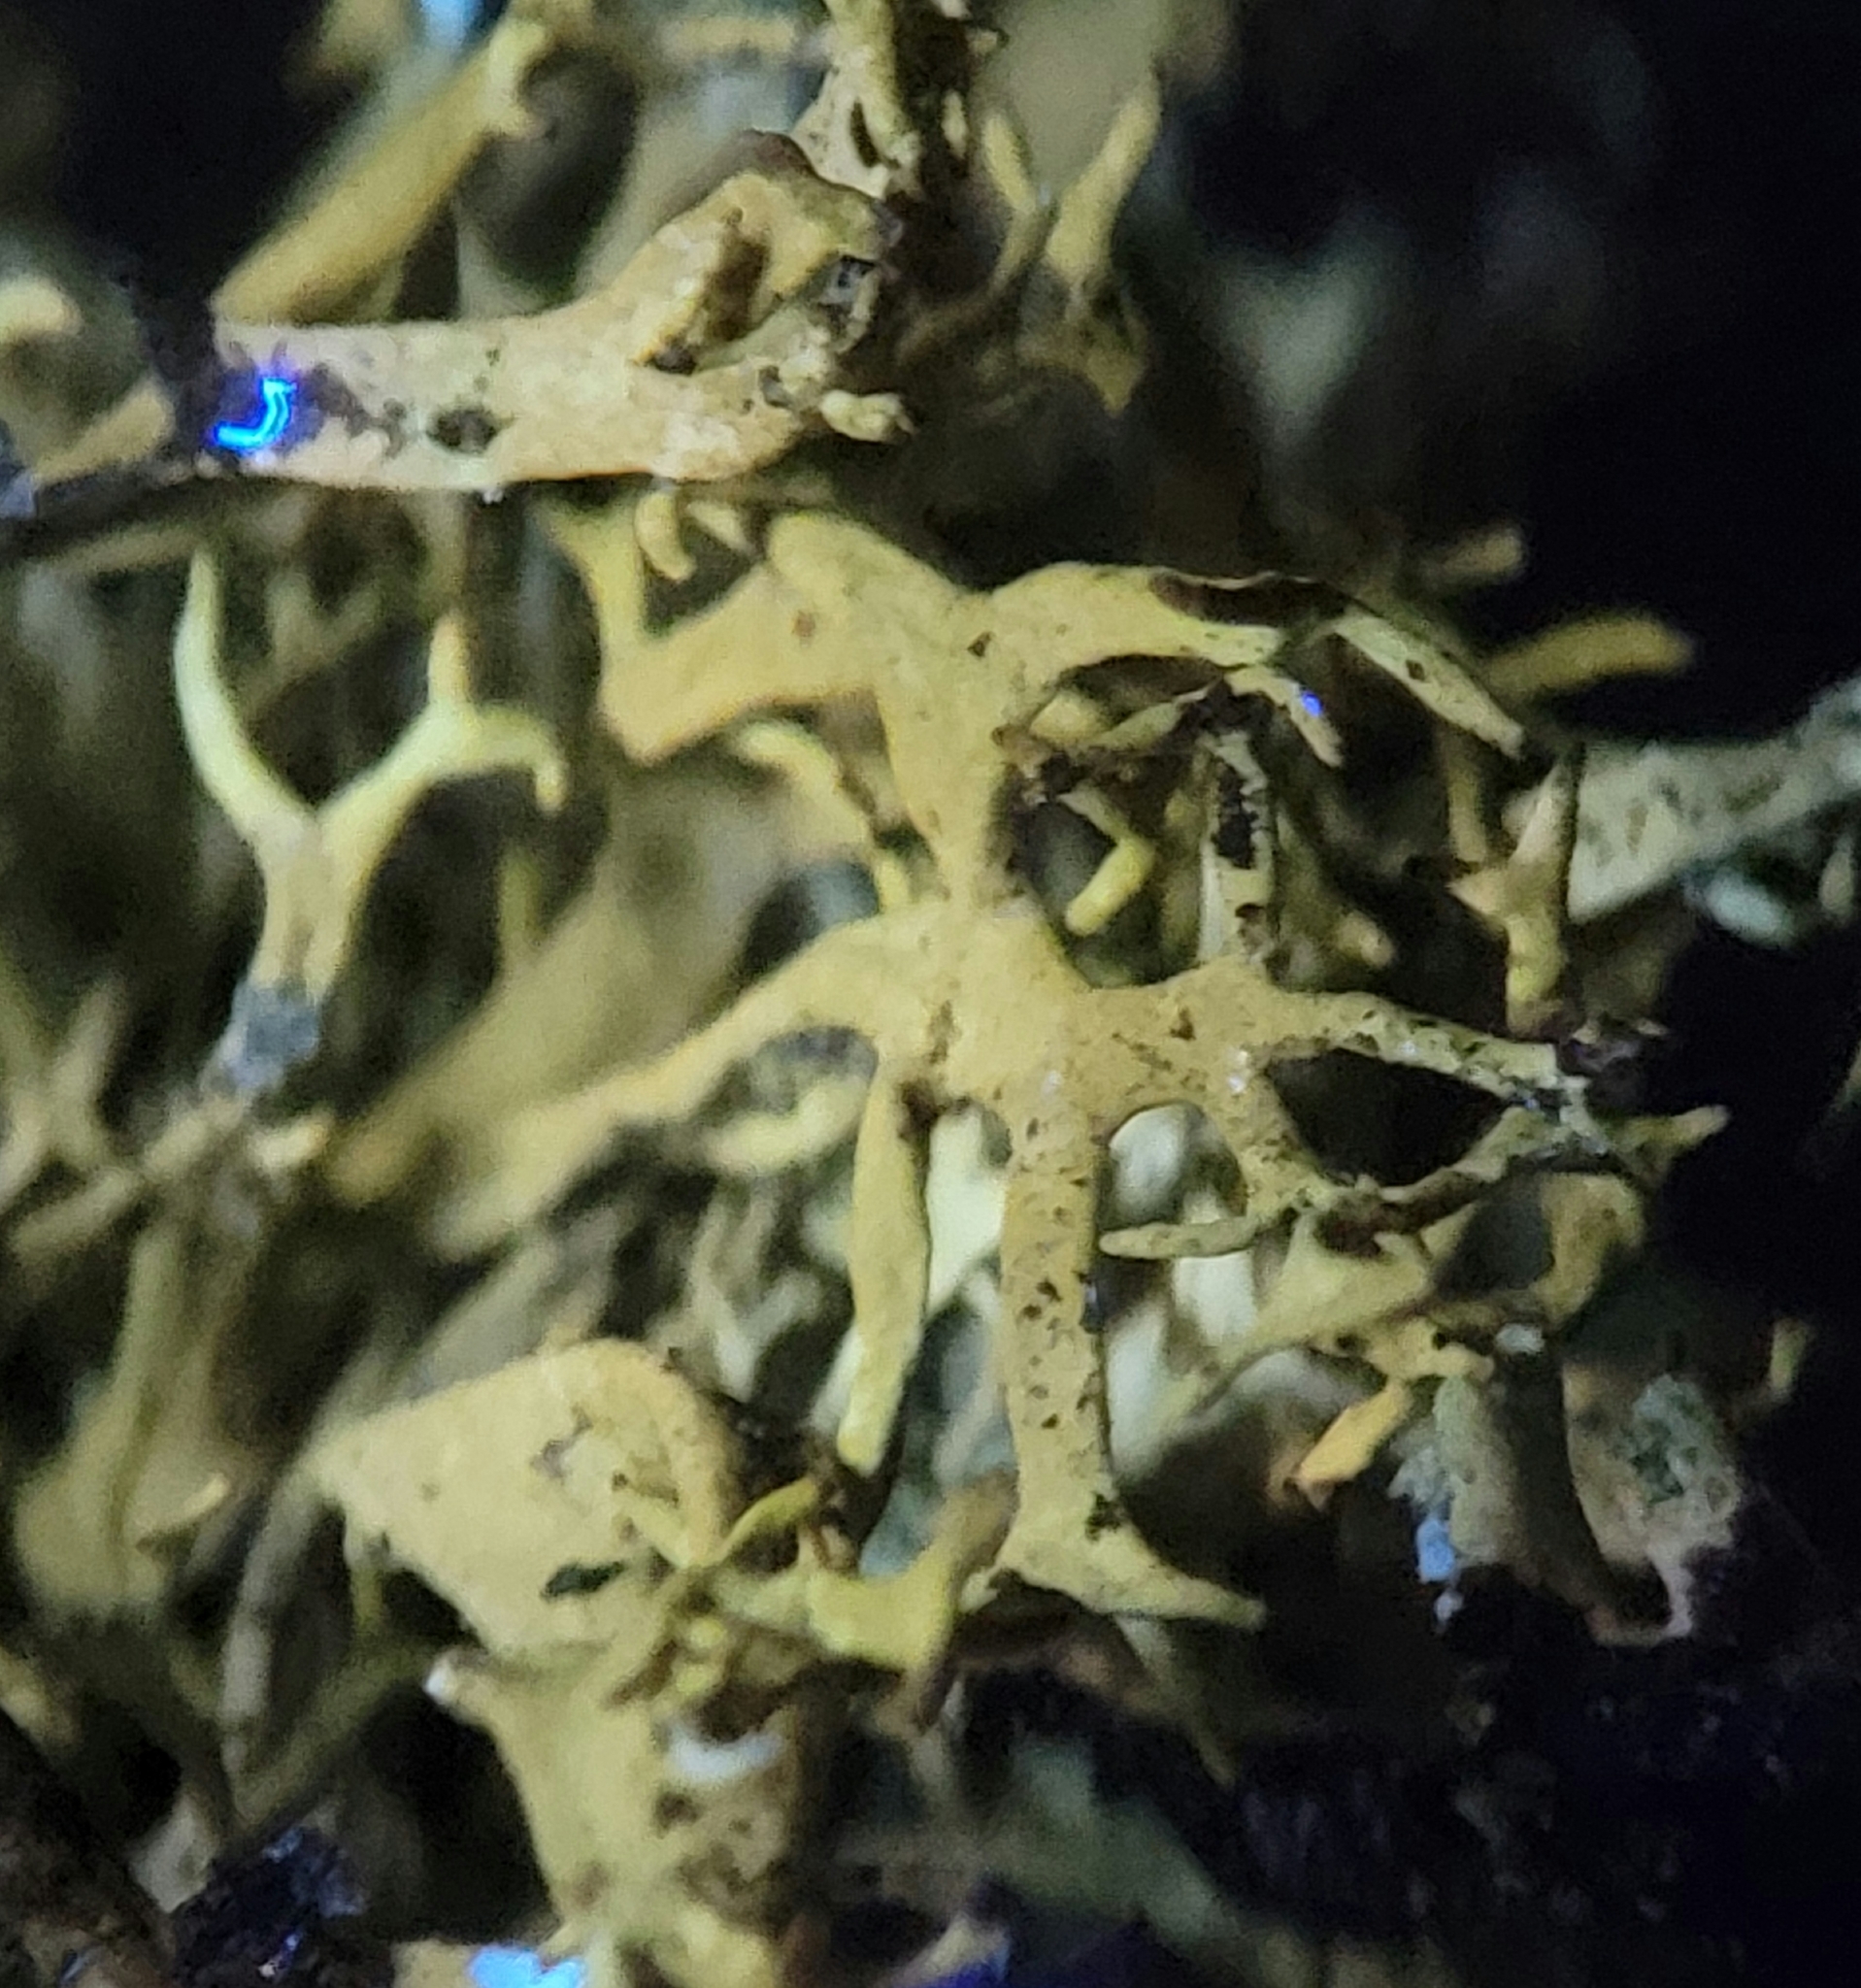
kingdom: Fungi
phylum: Ascomycota
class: Lecanoromycetes
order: Lecanorales
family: Parmeliaceae
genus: Pseudevernia
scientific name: Pseudevernia consocians
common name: Common antler lichen
